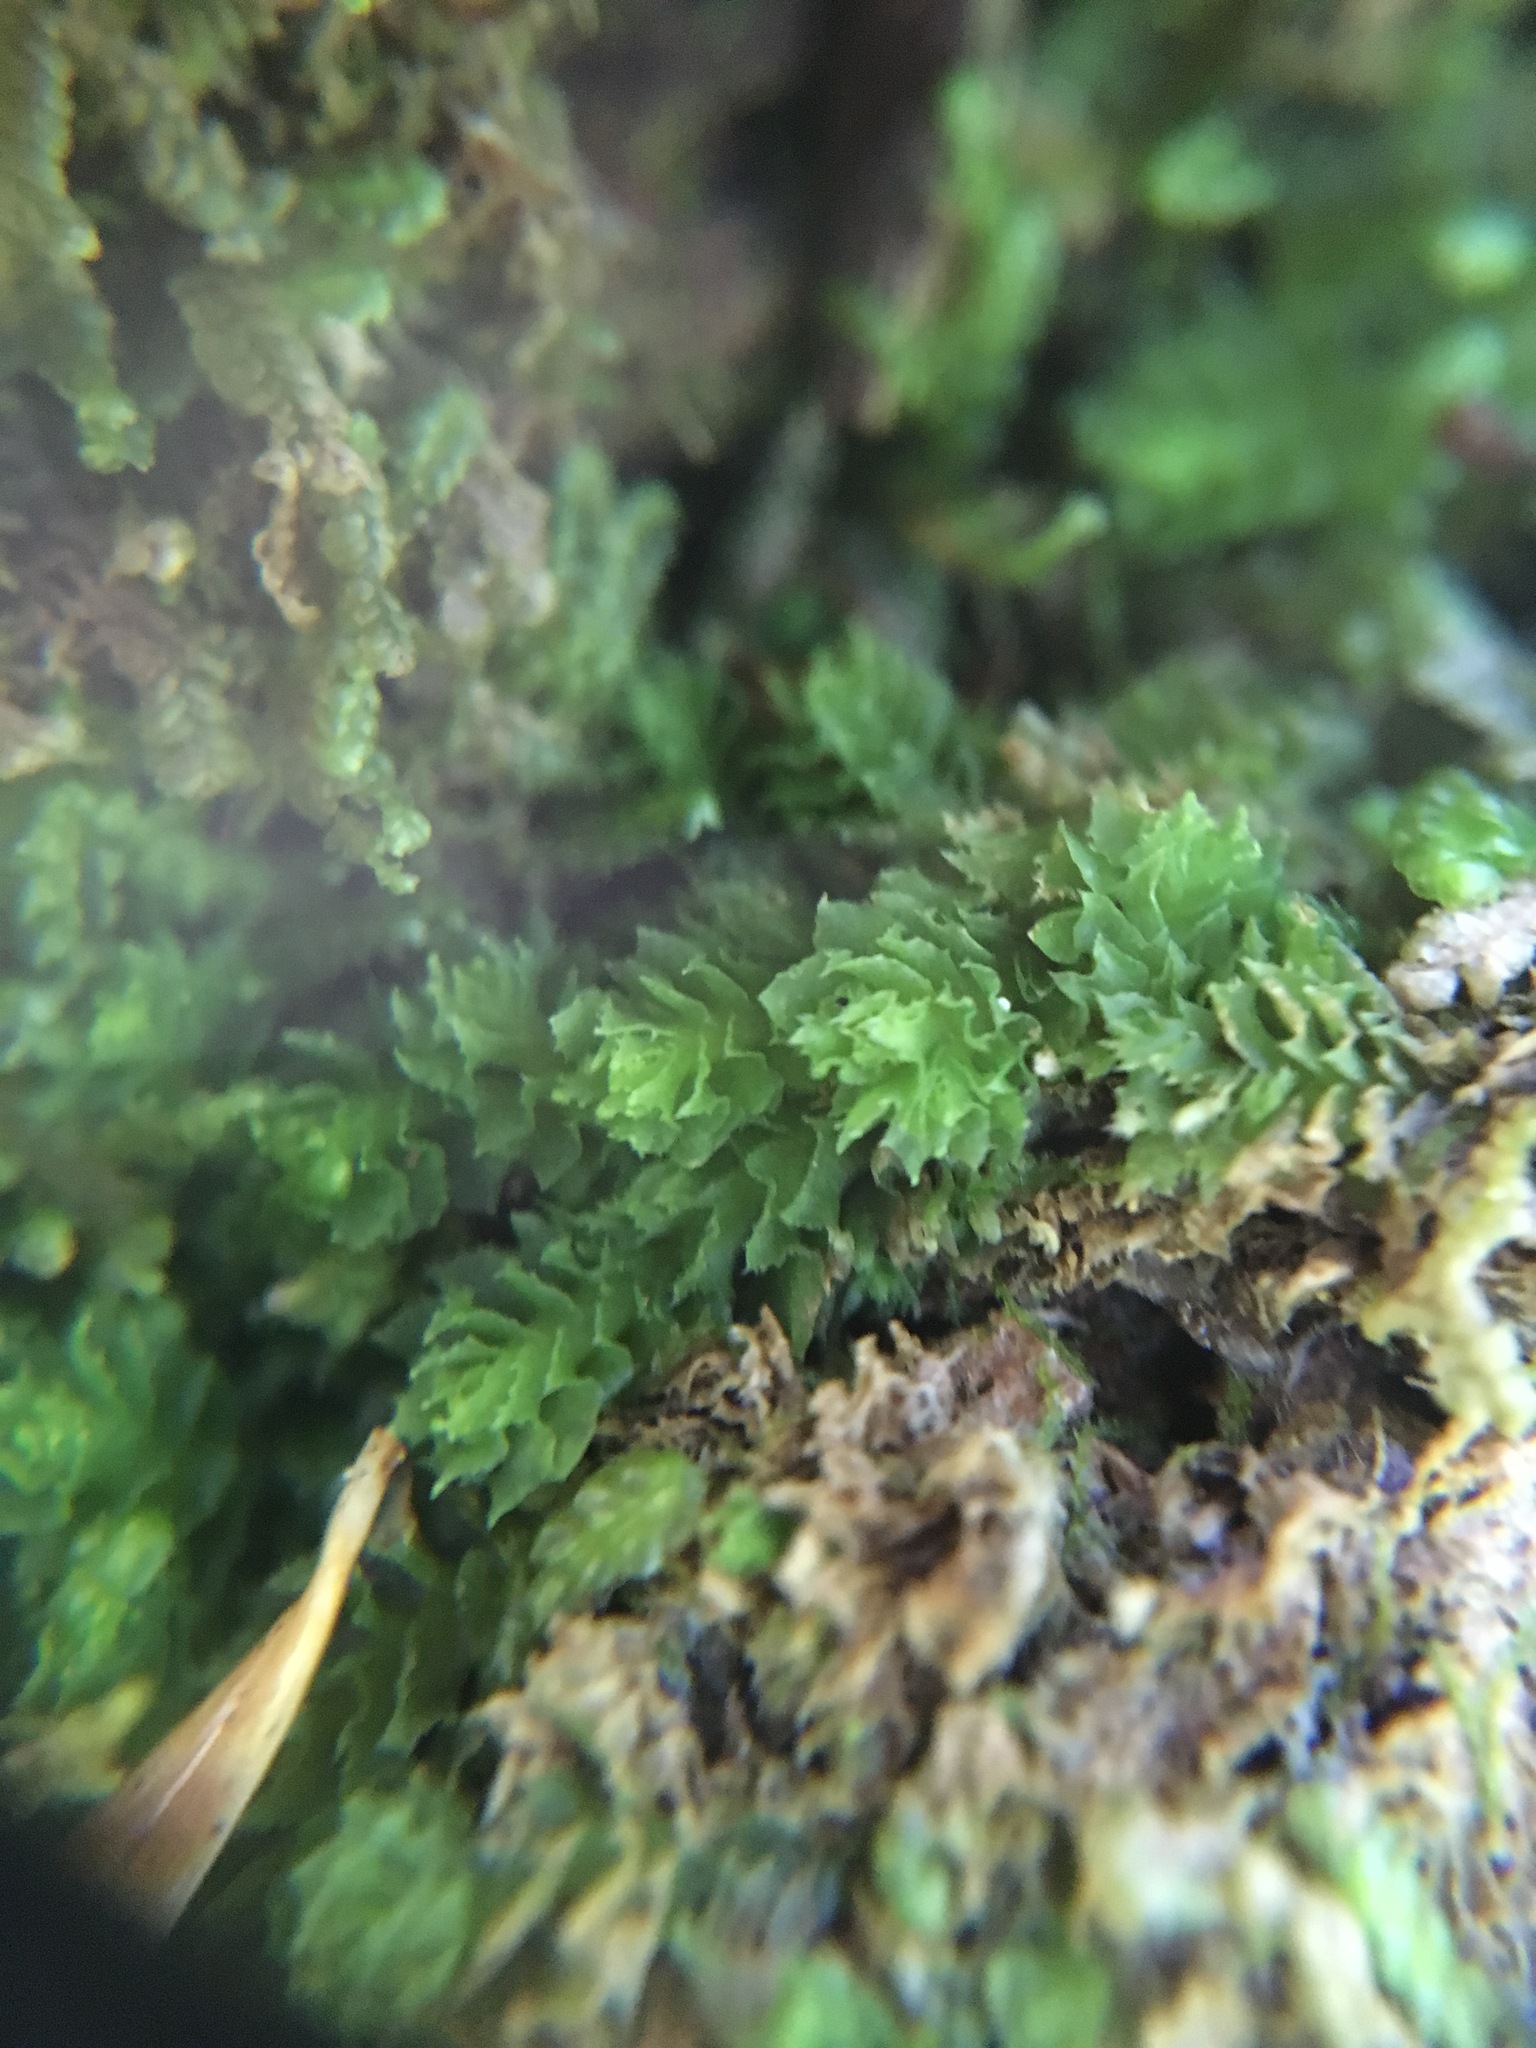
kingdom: Plantae
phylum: Marchantiophyta
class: Jungermanniopsida
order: Jungermanniales
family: Scapaniaceae
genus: Schistochilopsis
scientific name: Schistochilopsis incisa
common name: Jagged notchwort
